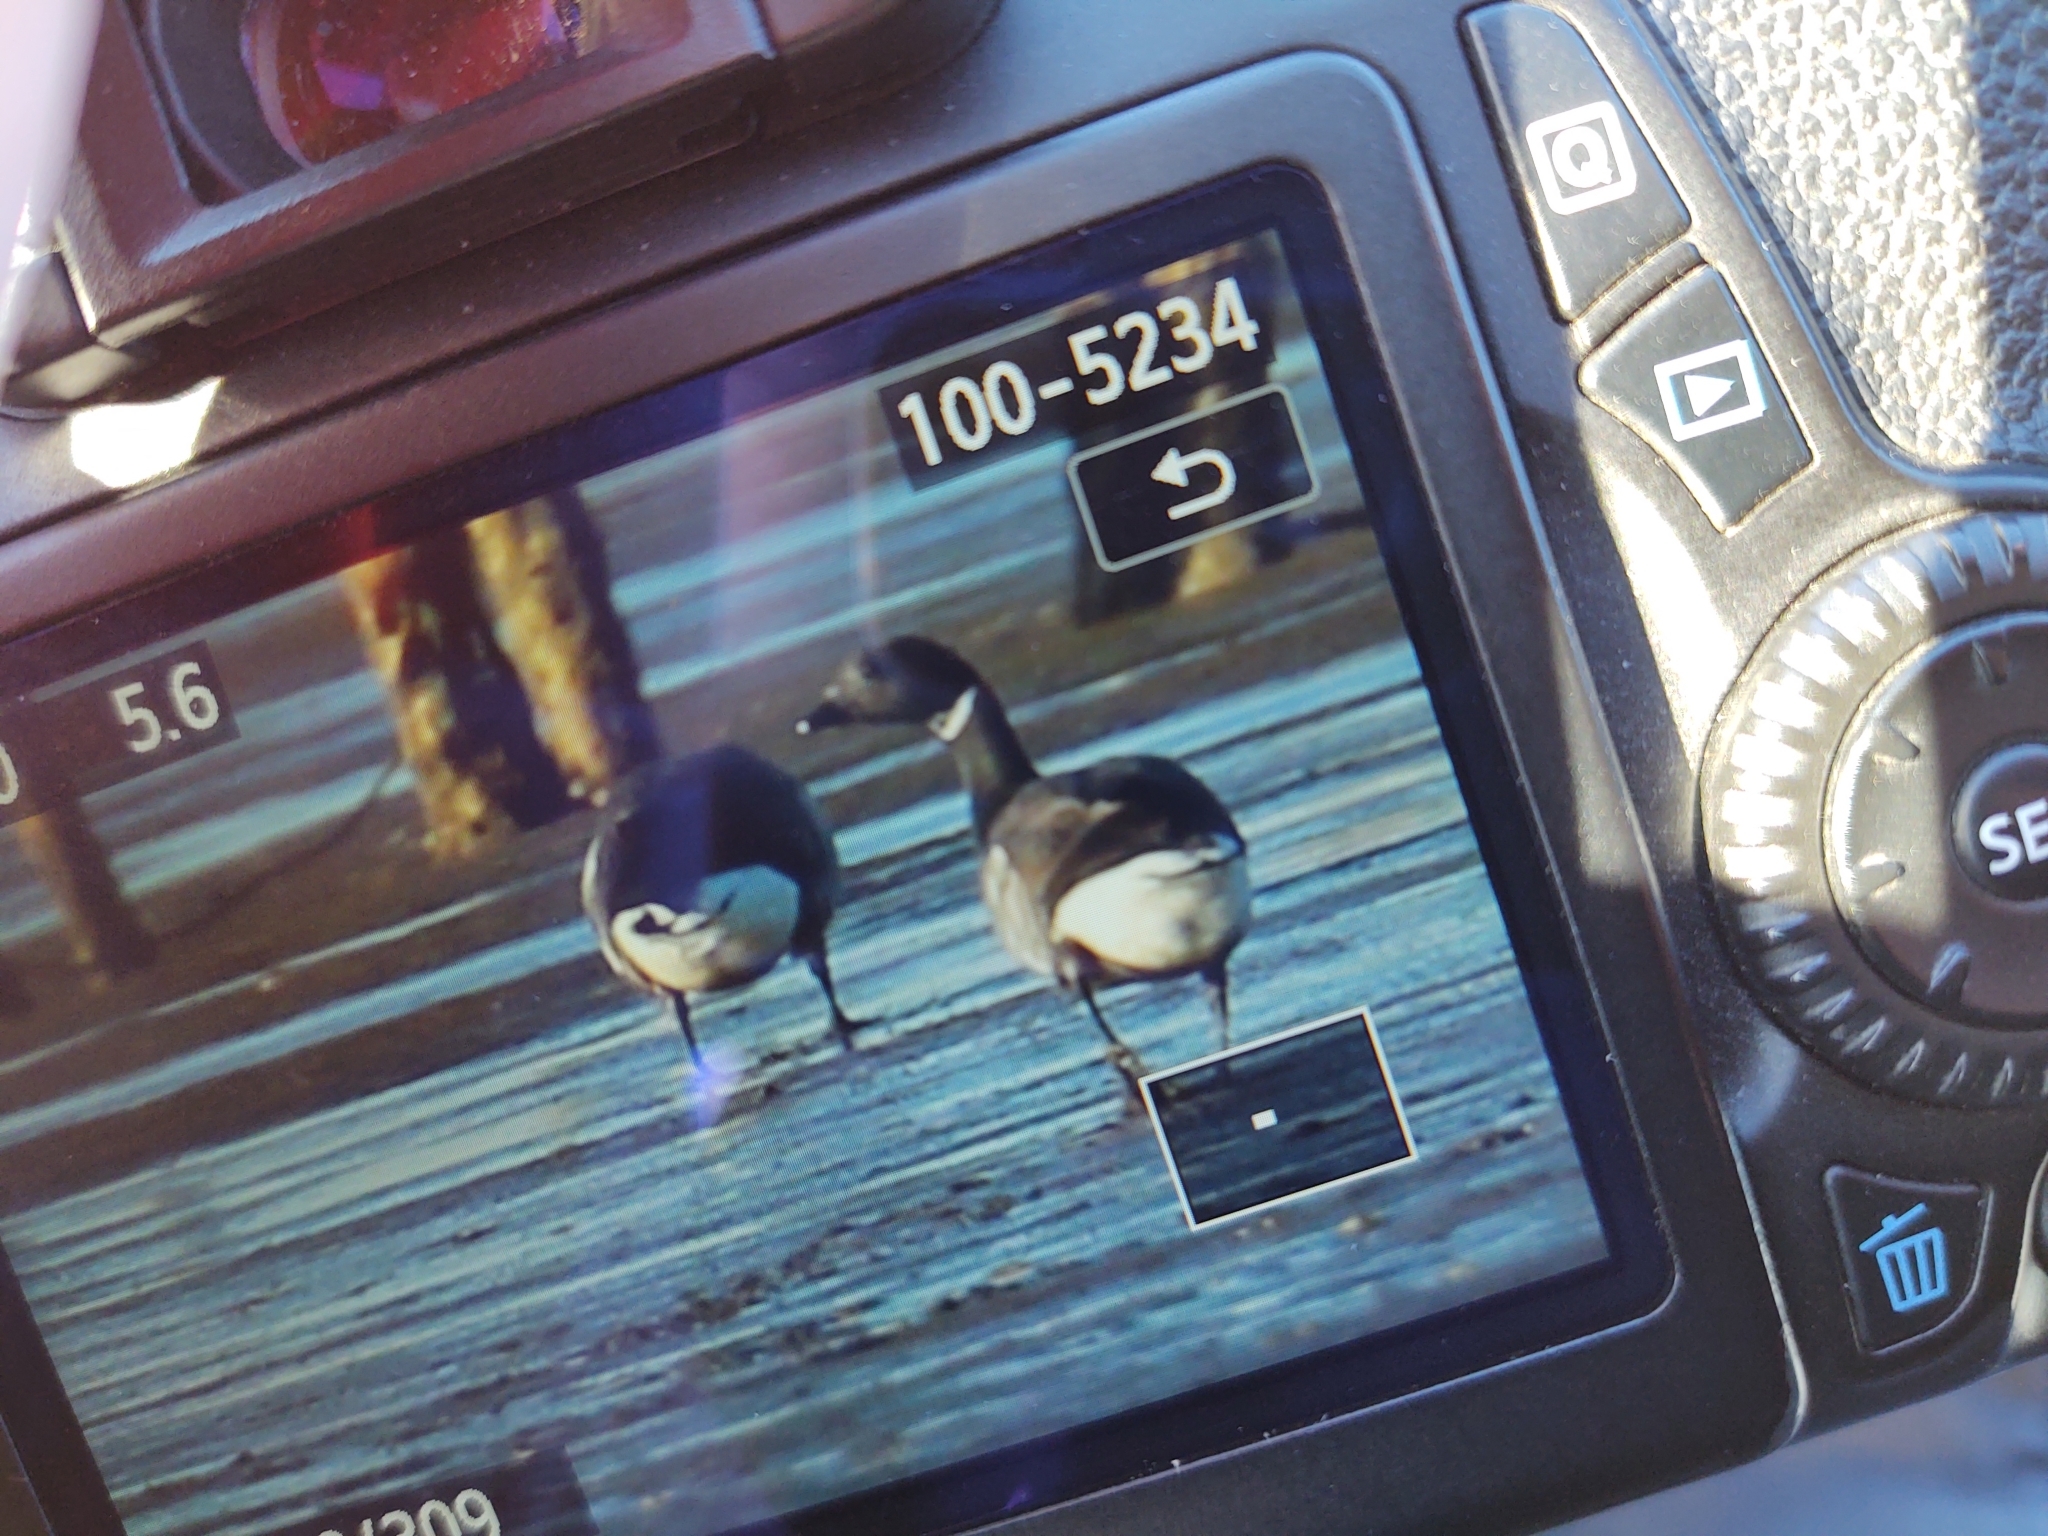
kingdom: Animalia
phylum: Chordata
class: Aves
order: Anseriformes
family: Anatidae
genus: Branta
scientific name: Branta bernicla
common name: Brant goose
